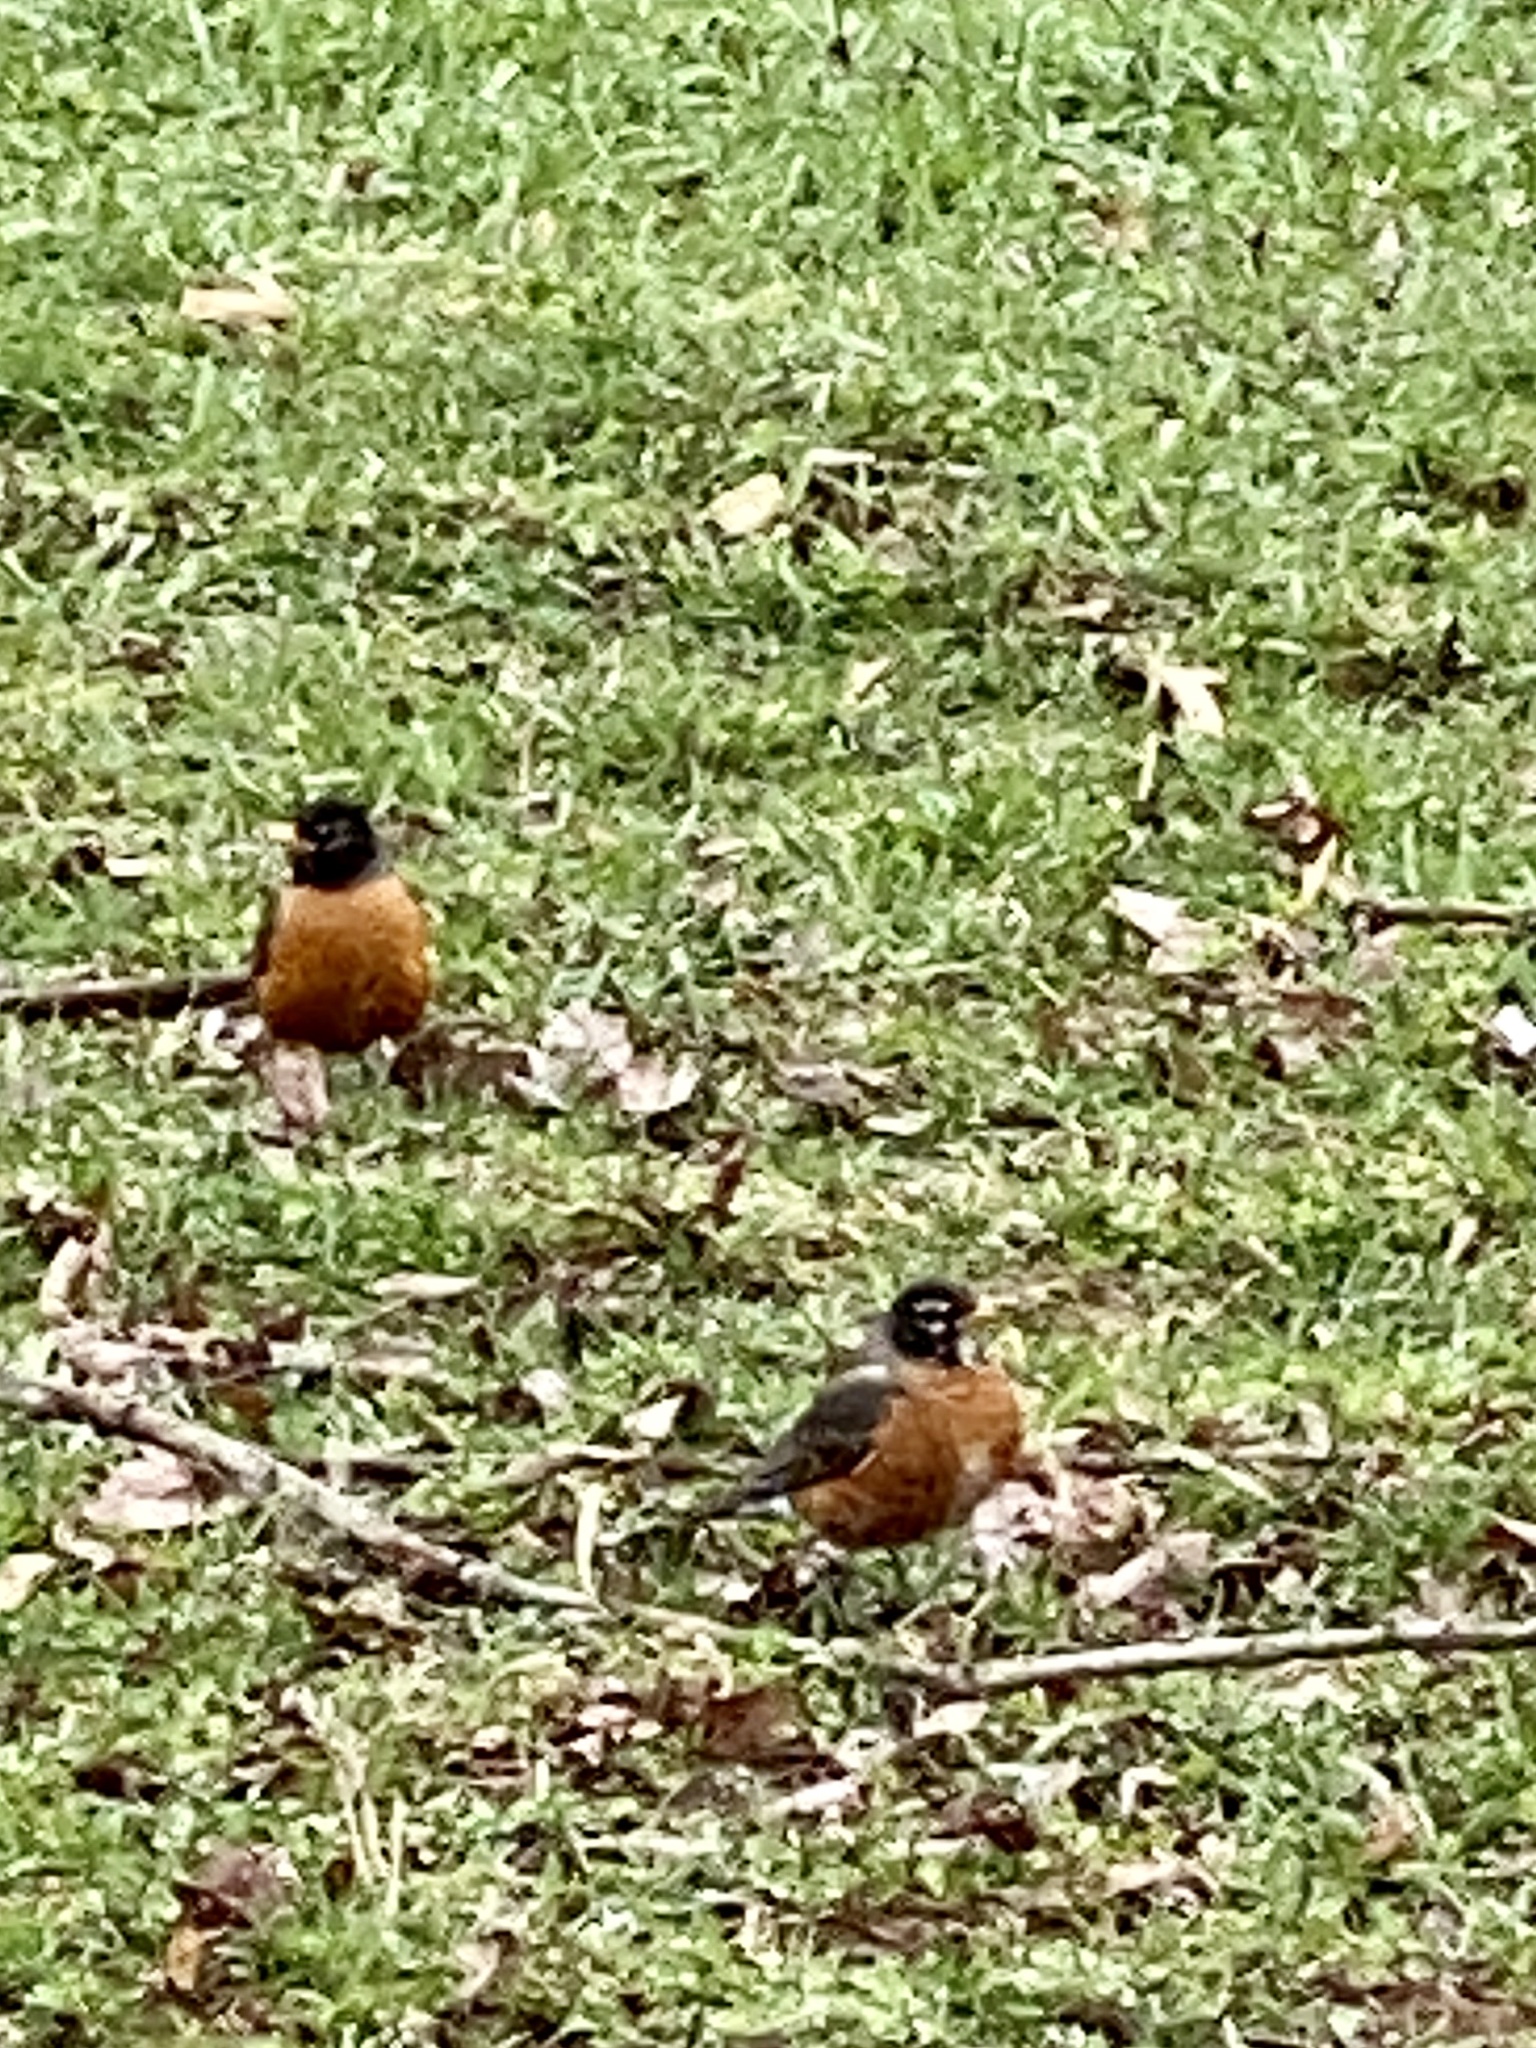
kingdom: Animalia
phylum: Chordata
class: Aves
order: Passeriformes
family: Turdidae
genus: Turdus
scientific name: Turdus migratorius
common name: American robin
